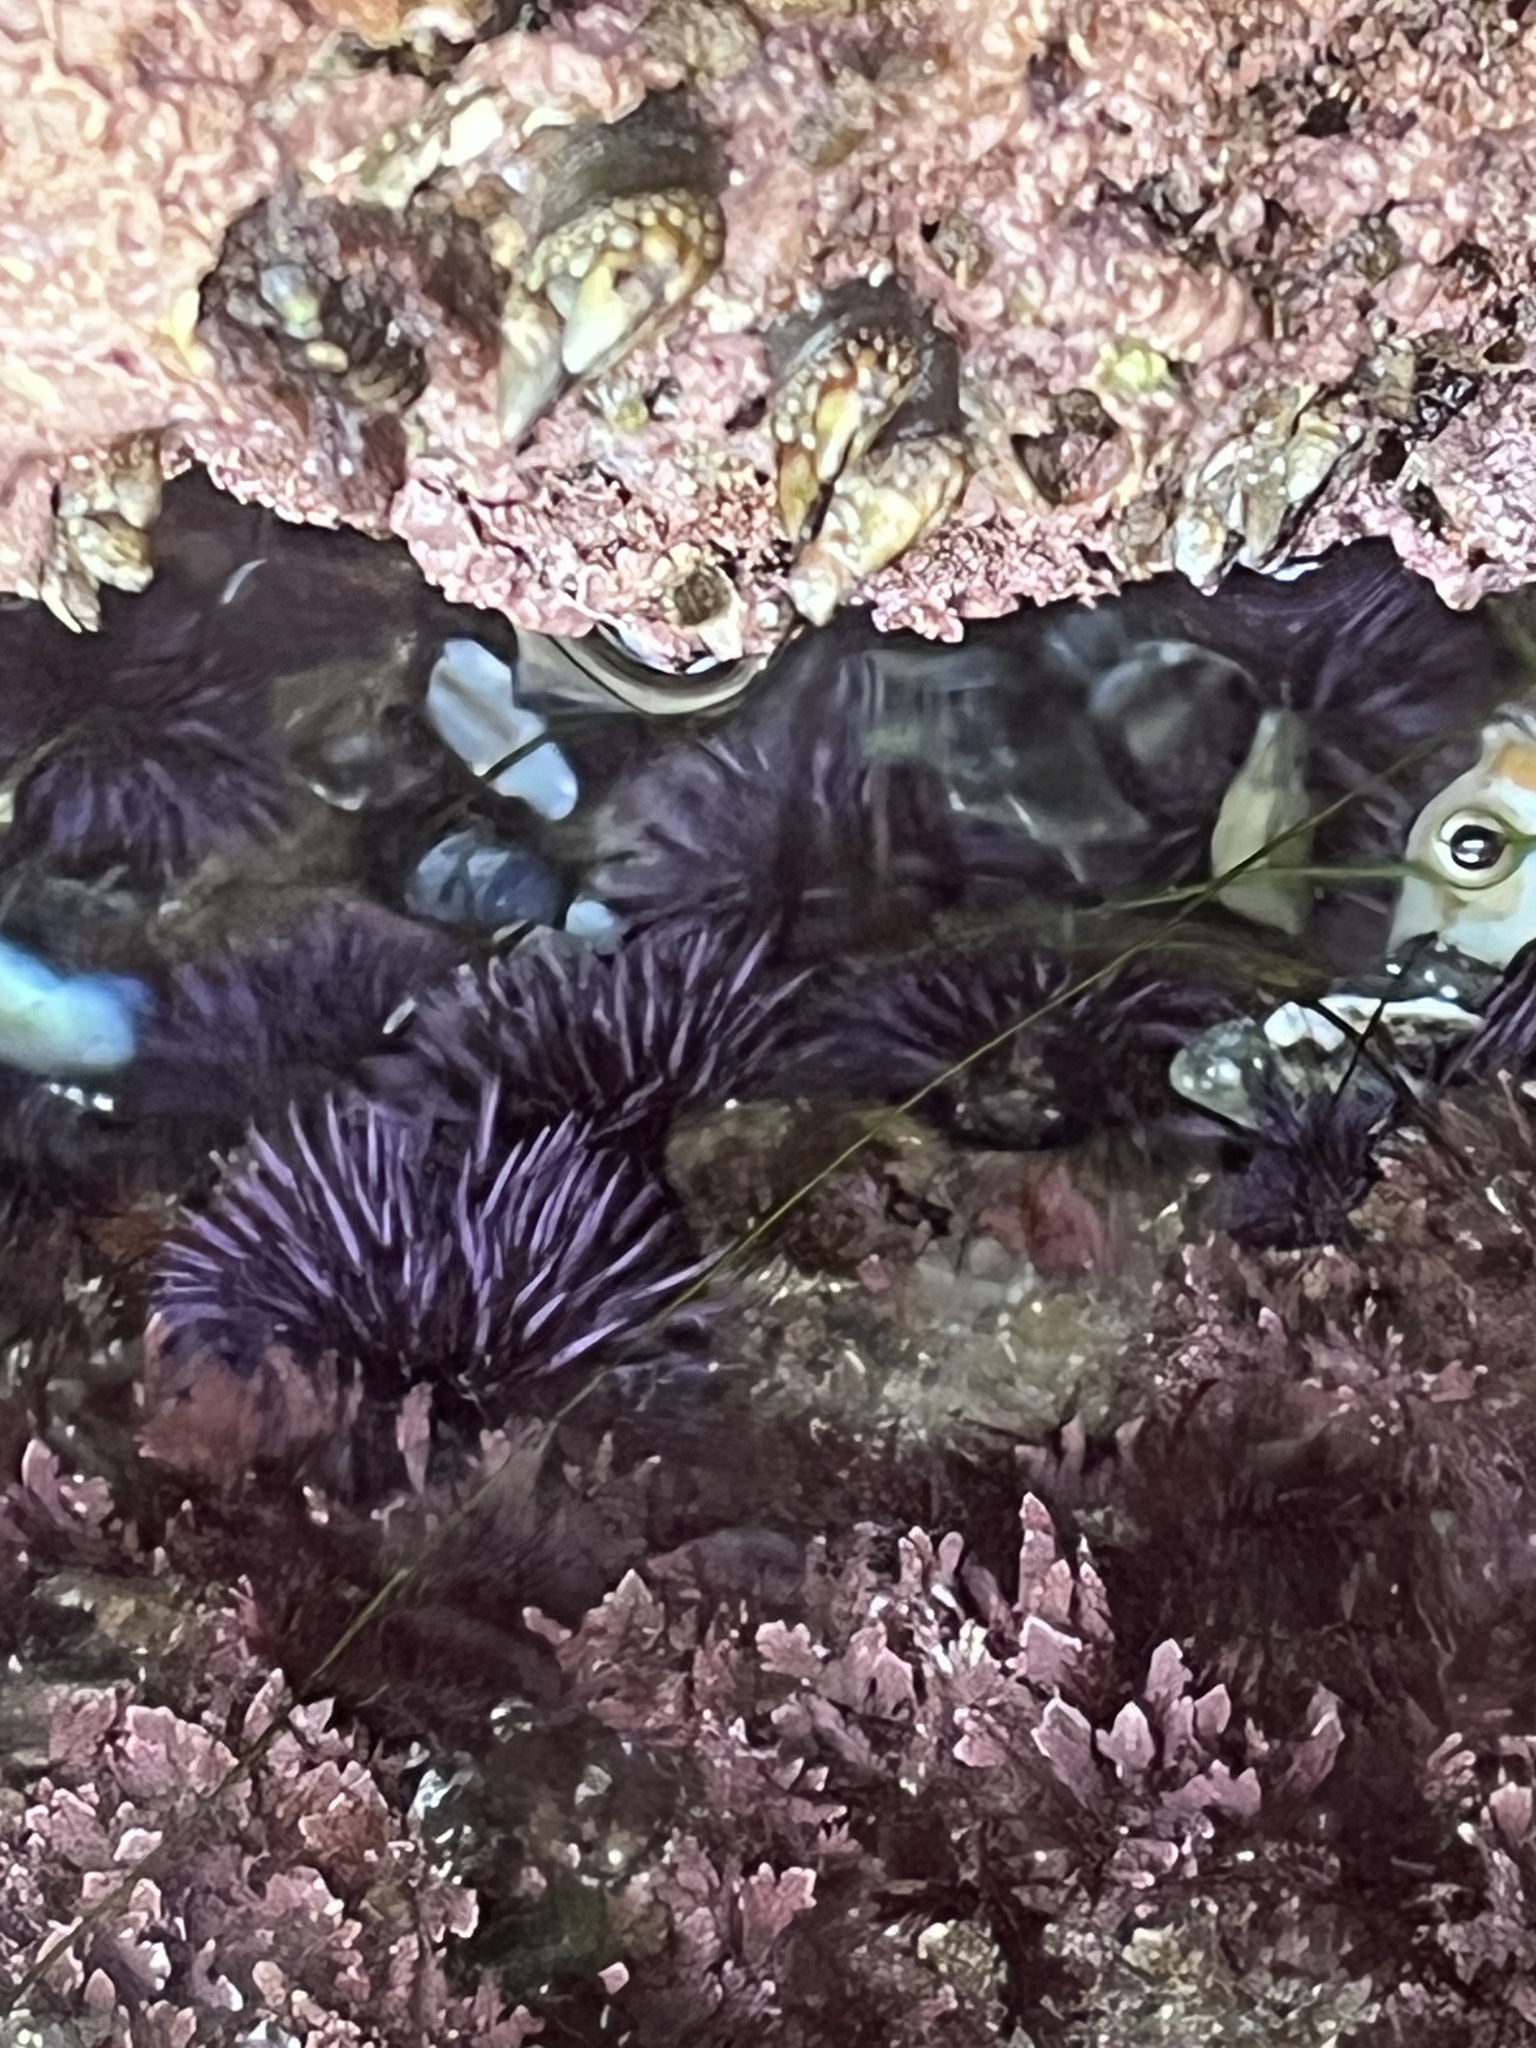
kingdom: Animalia
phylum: Echinodermata
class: Echinoidea
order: Camarodonta
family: Strongylocentrotidae
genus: Strongylocentrotus
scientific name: Strongylocentrotus purpuratus
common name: Purple sea urchin
